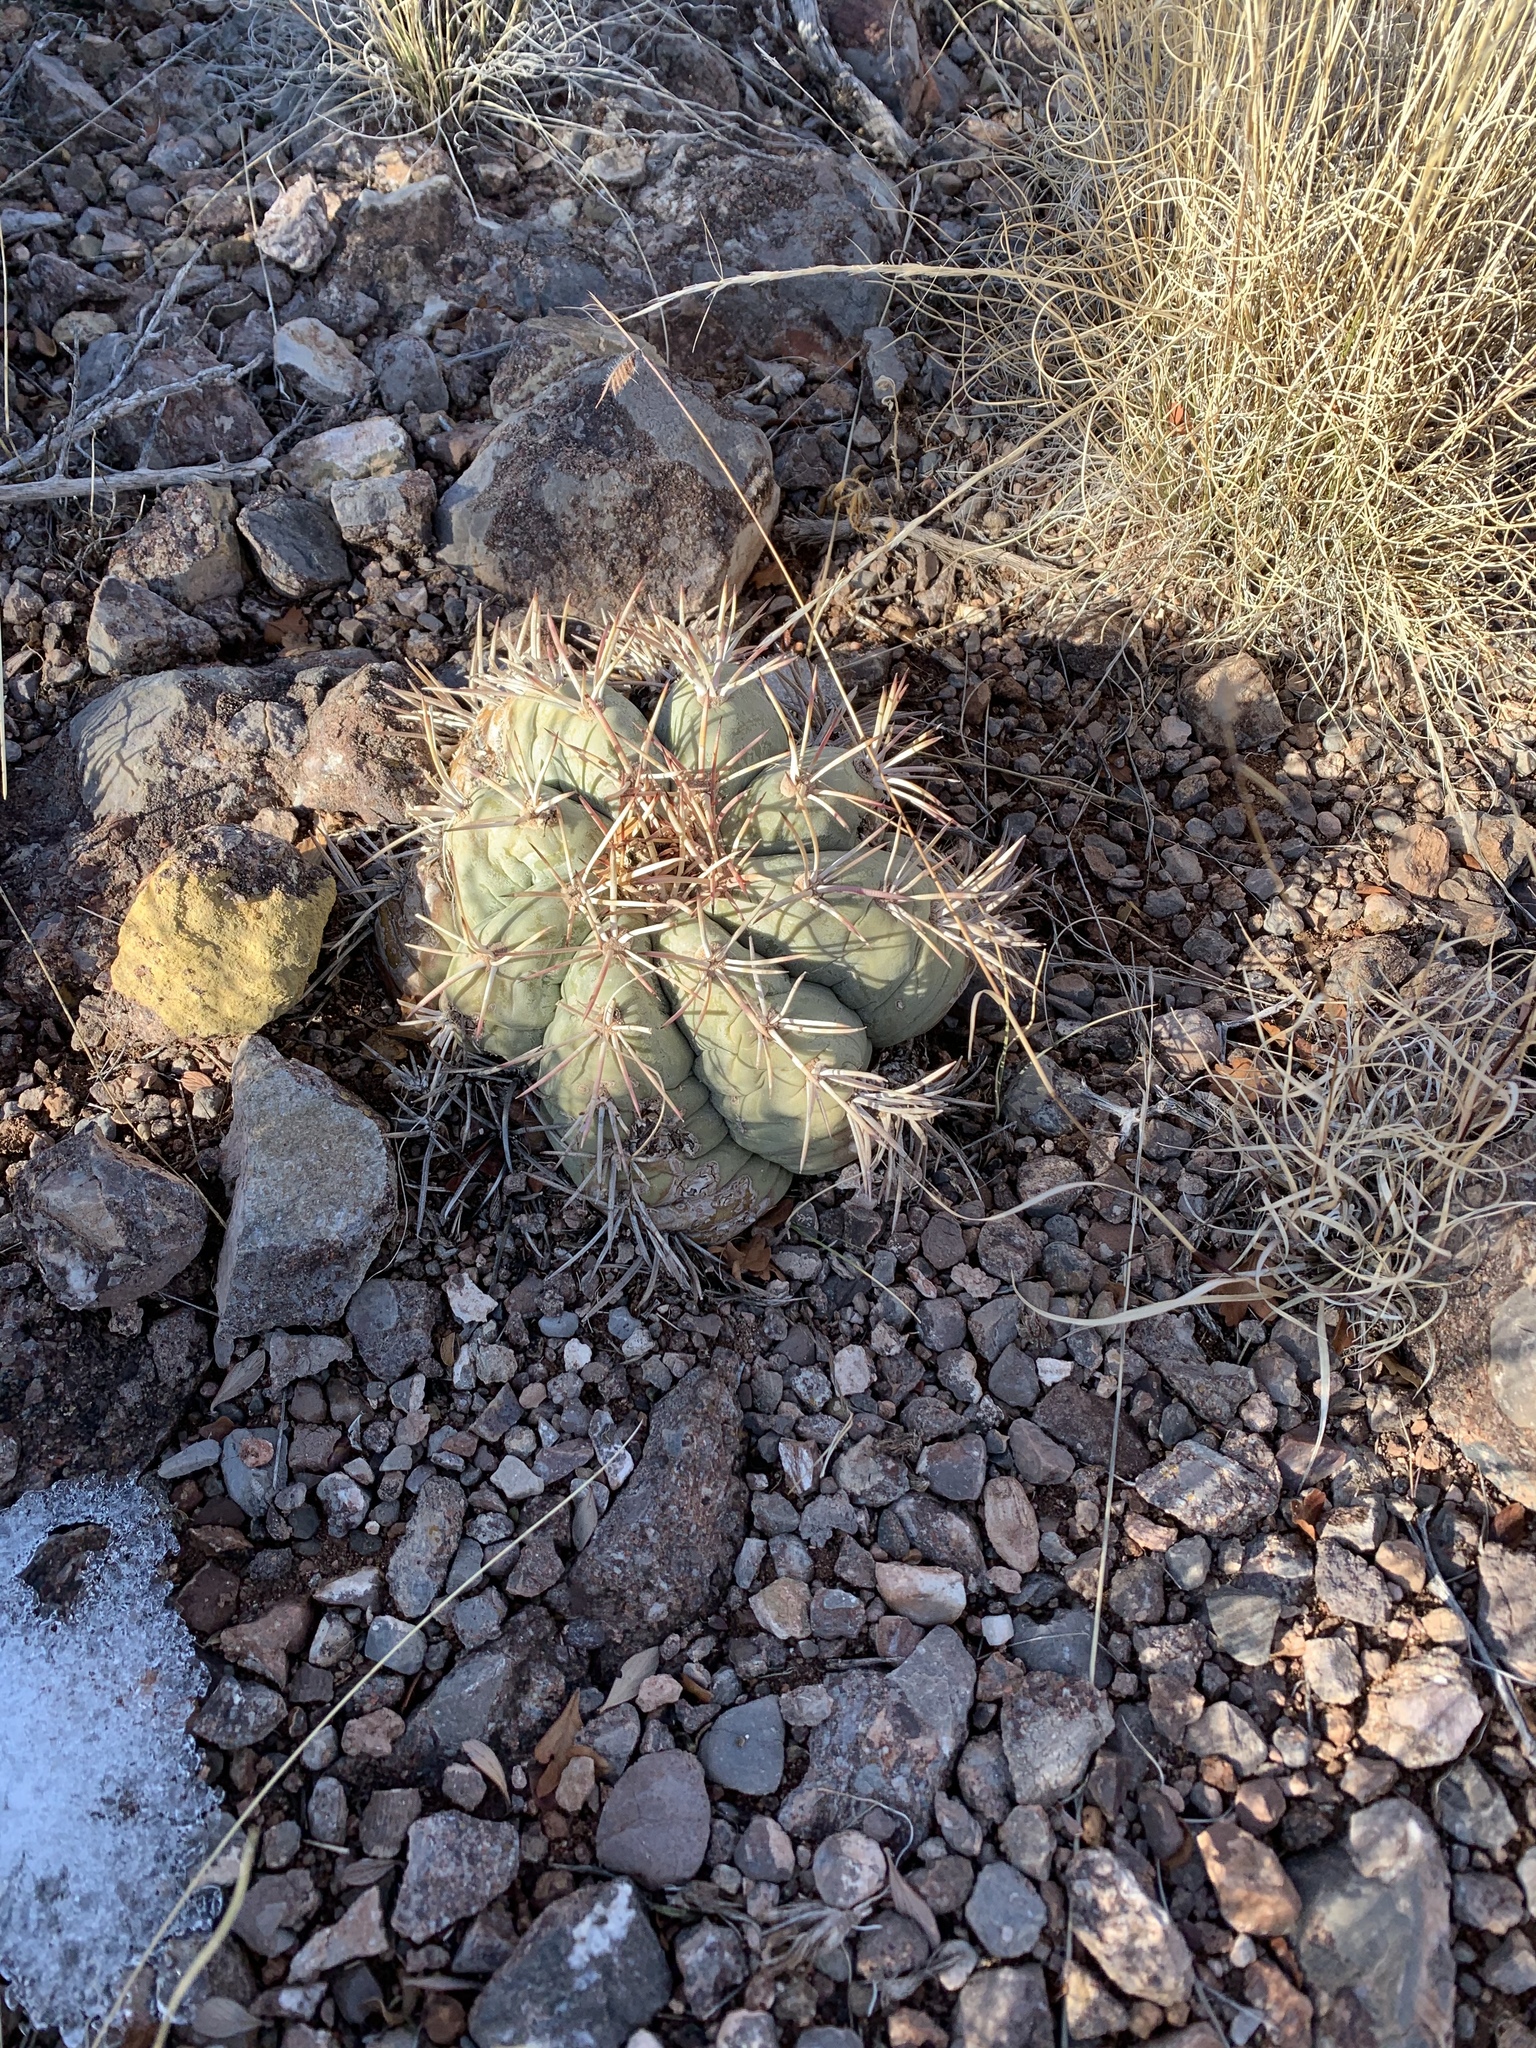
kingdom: Plantae
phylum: Tracheophyta
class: Magnoliopsida
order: Caryophyllales
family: Cactaceae
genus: Echinocactus
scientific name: Echinocactus horizonthalonius
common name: Devilshead
